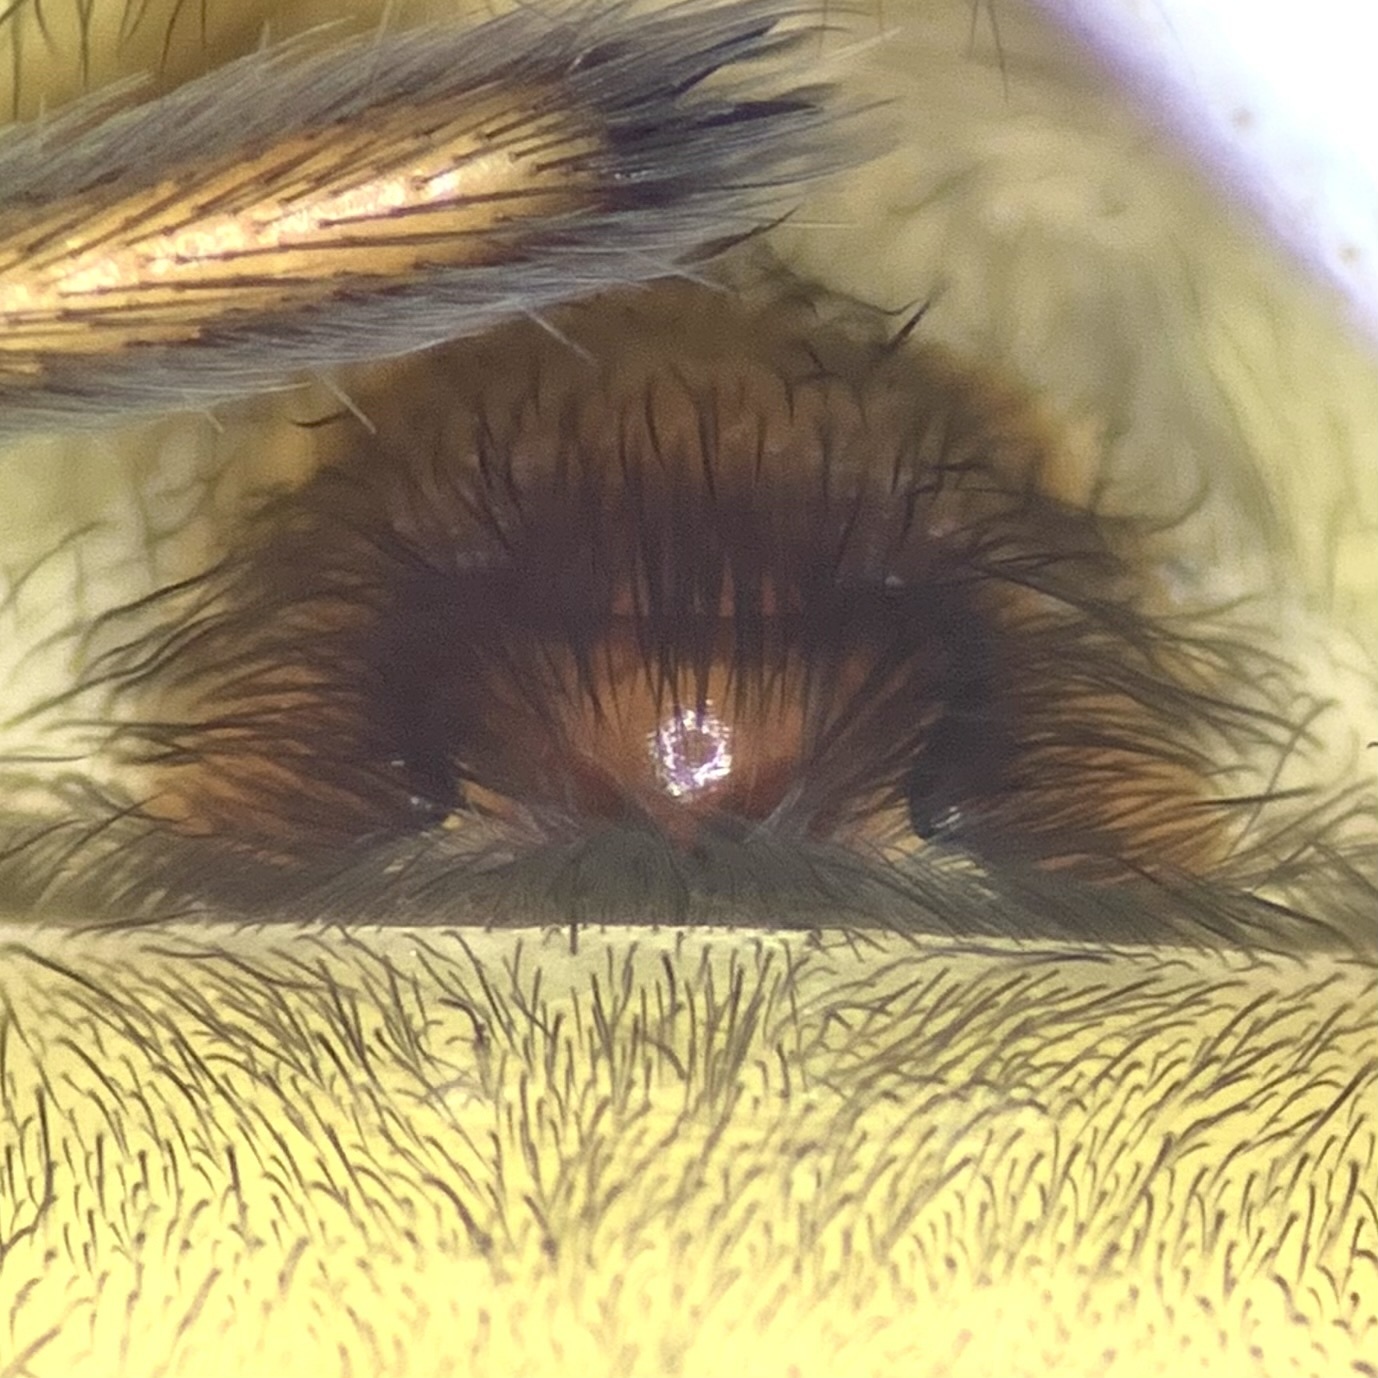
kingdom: Animalia
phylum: Arthropoda
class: Arachnida
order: Araneae
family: Amaurobiidae
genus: Amaurobius
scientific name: Amaurobius ferox
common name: Black laceweaver
